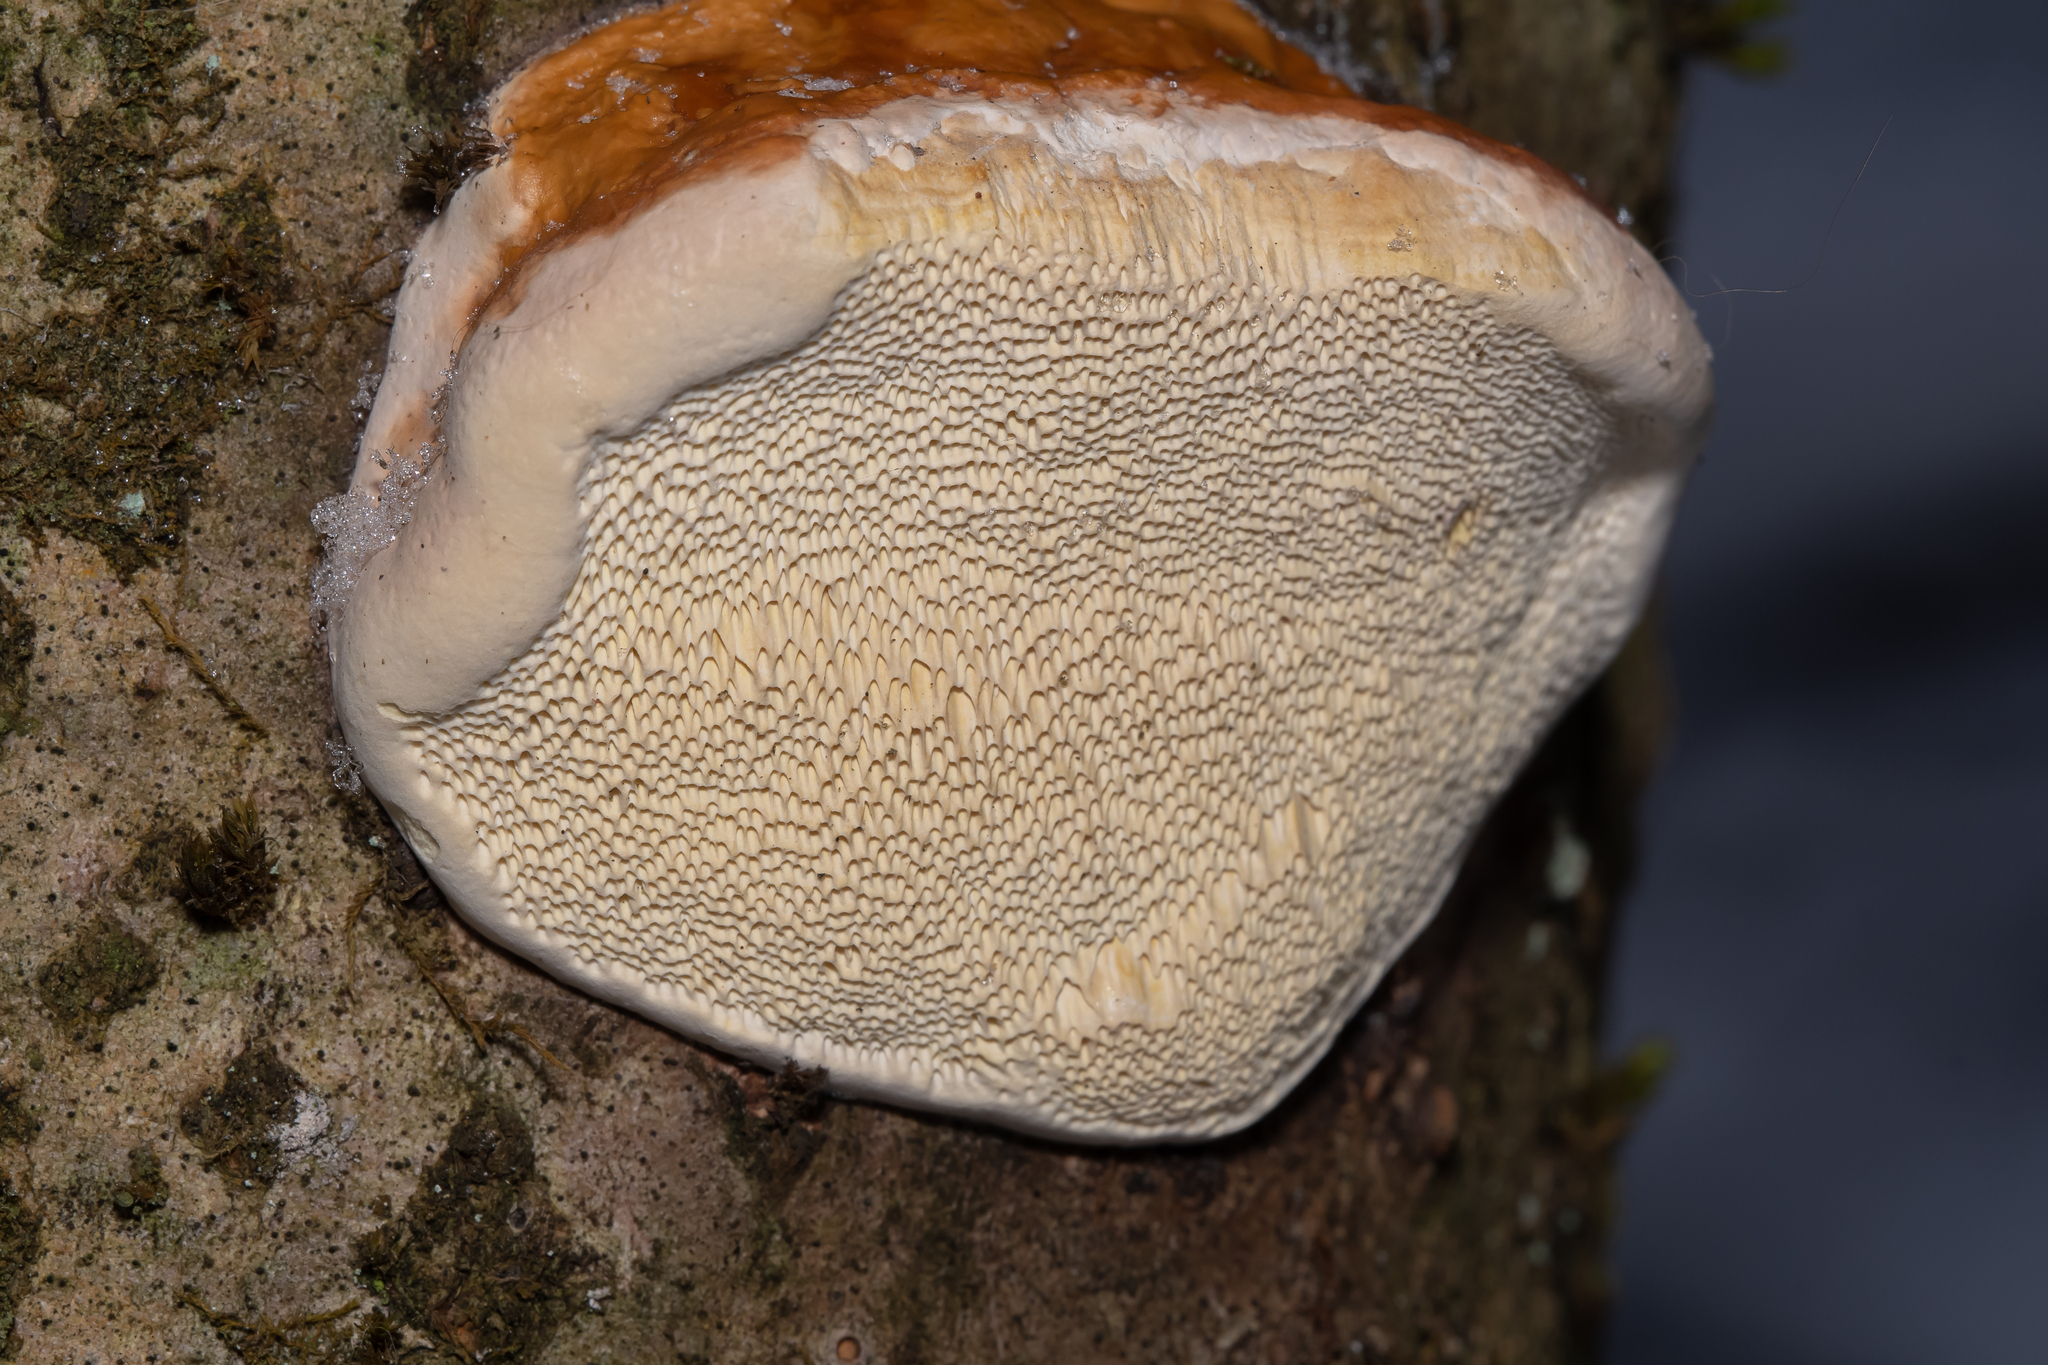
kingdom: Fungi
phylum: Basidiomycota
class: Agaricomycetes
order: Polyporales
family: Fomitopsidaceae
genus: Fomitopsis
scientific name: Fomitopsis pinicola
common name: Red-belted bracket
